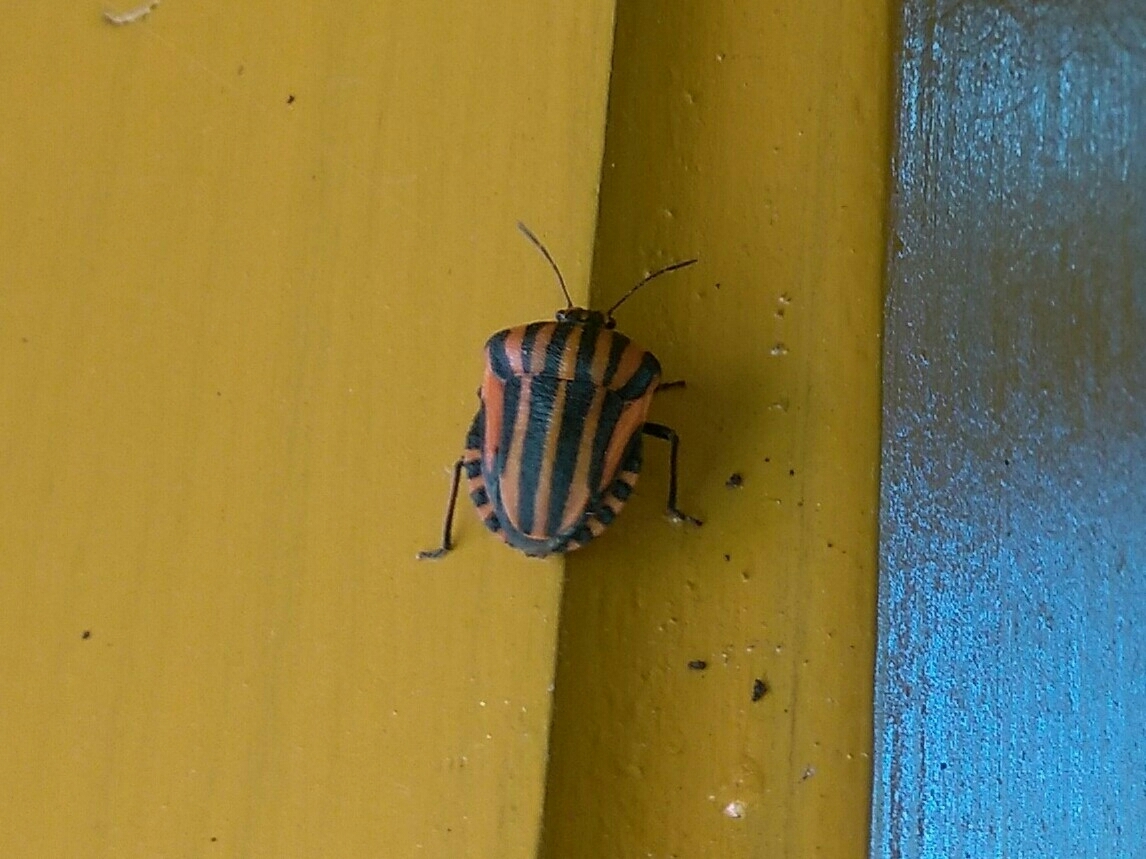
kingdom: Animalia
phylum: Arthropoda
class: Insecta
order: Hemiptera
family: Pentatomidae
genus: Graphosoma
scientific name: Graphosoma italicum
